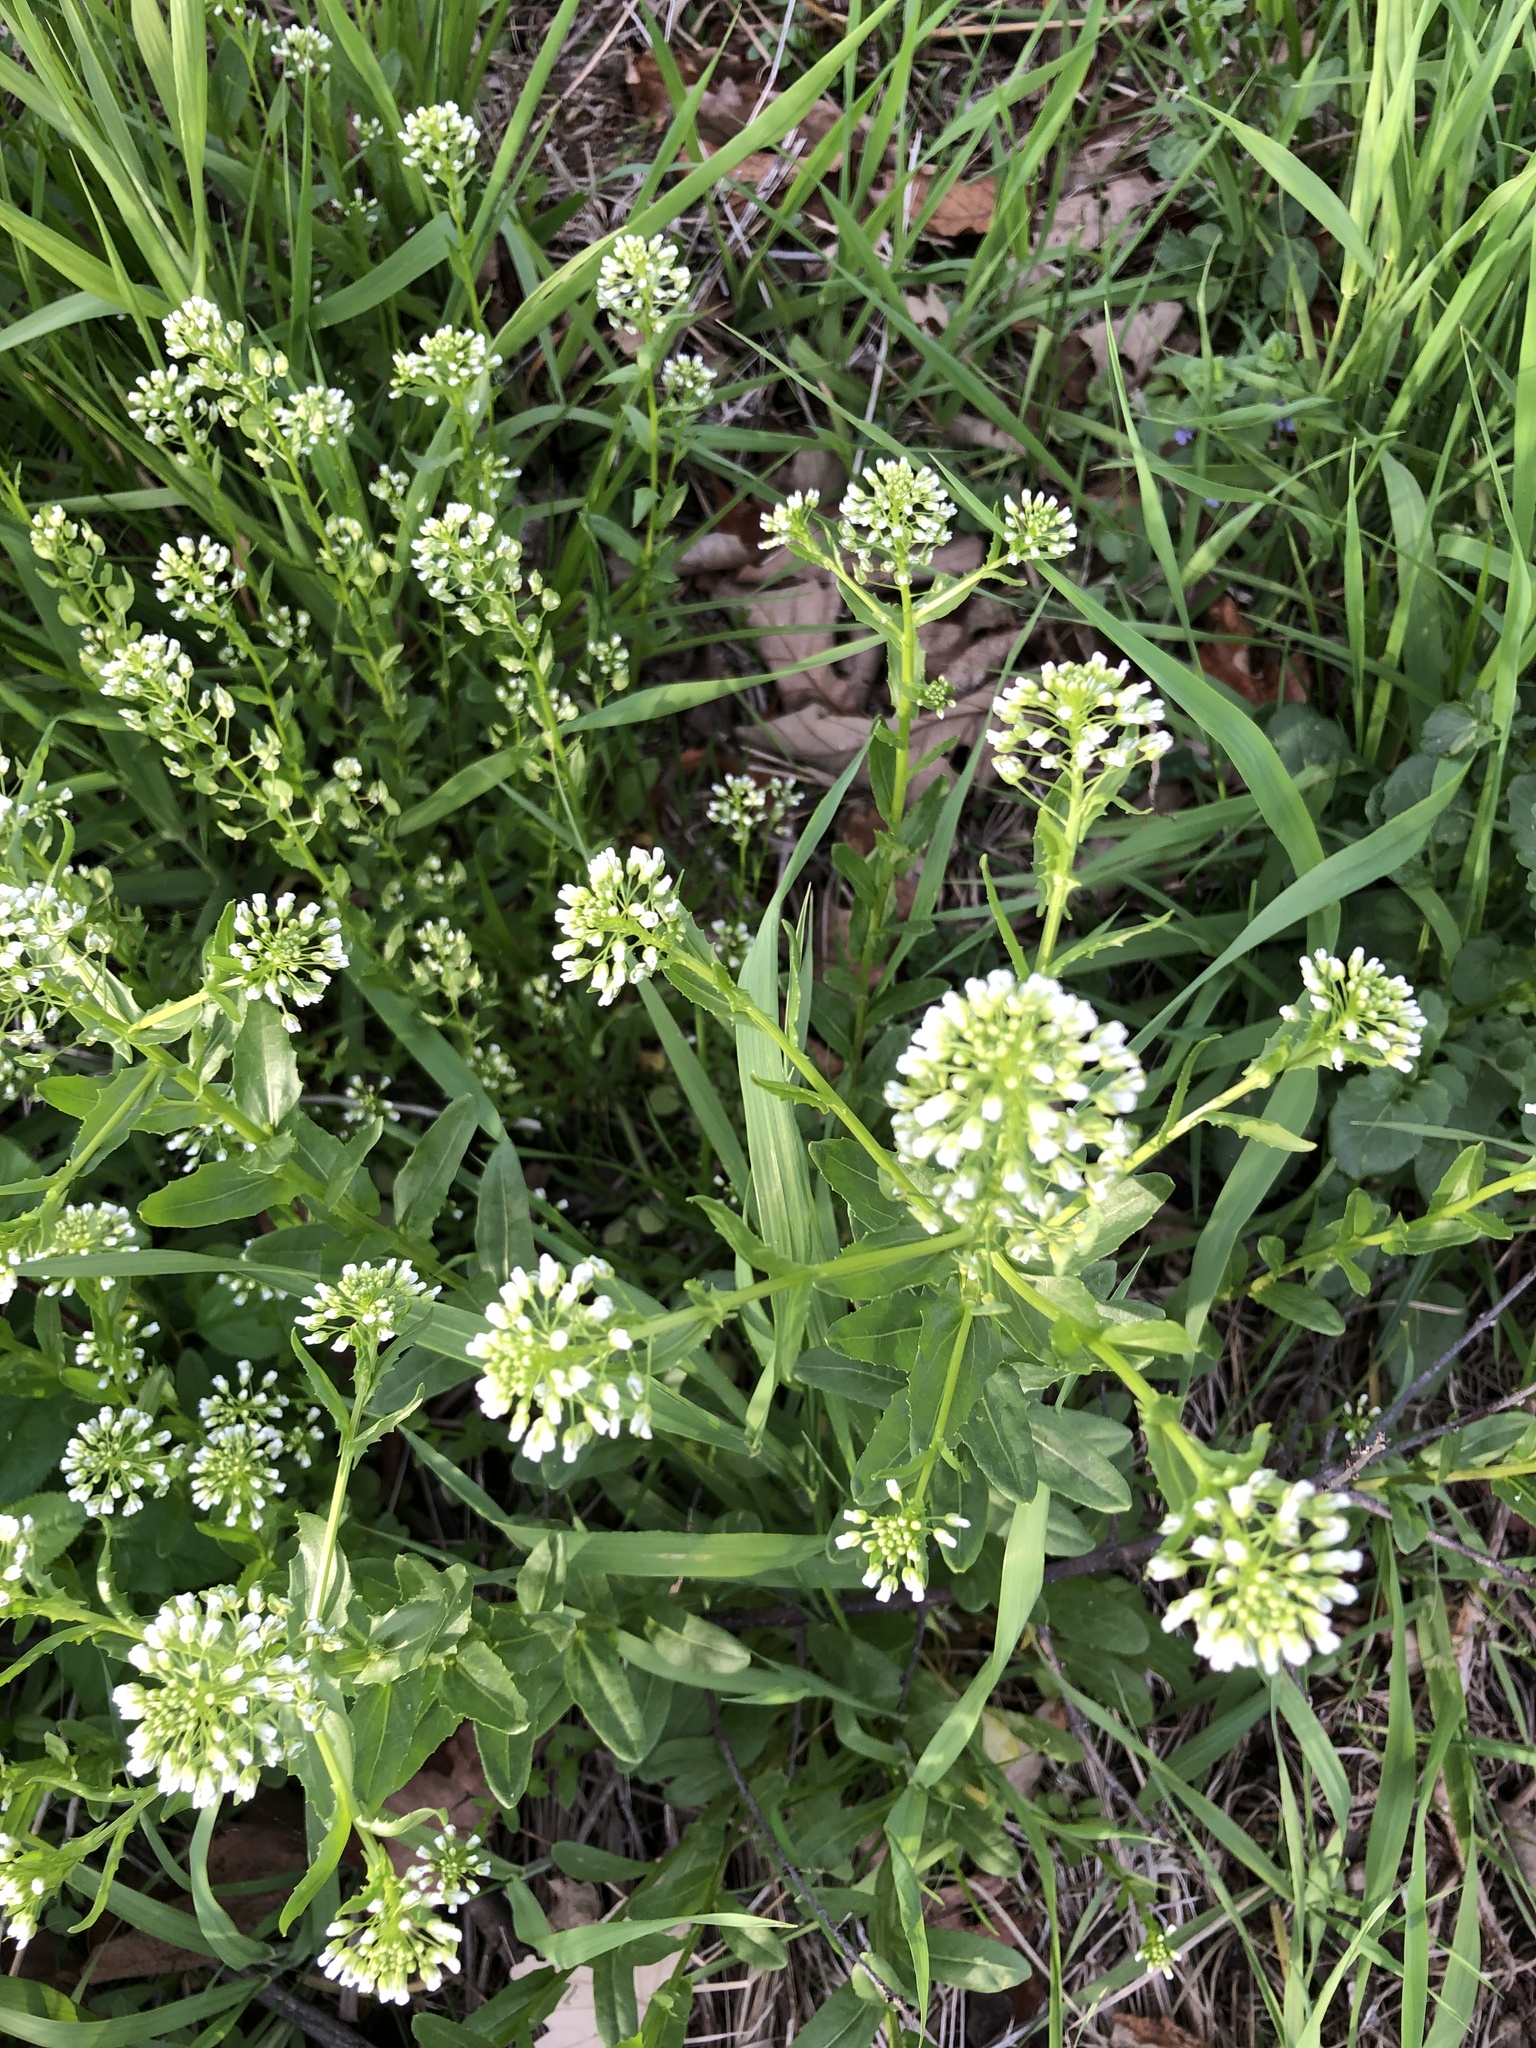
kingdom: Plantae
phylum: Tracheophyta
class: Magnoliopsida
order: Brassicales
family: Brassicaceae
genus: Thlaspi
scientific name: Thlaspi arvense
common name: Field pennycress
